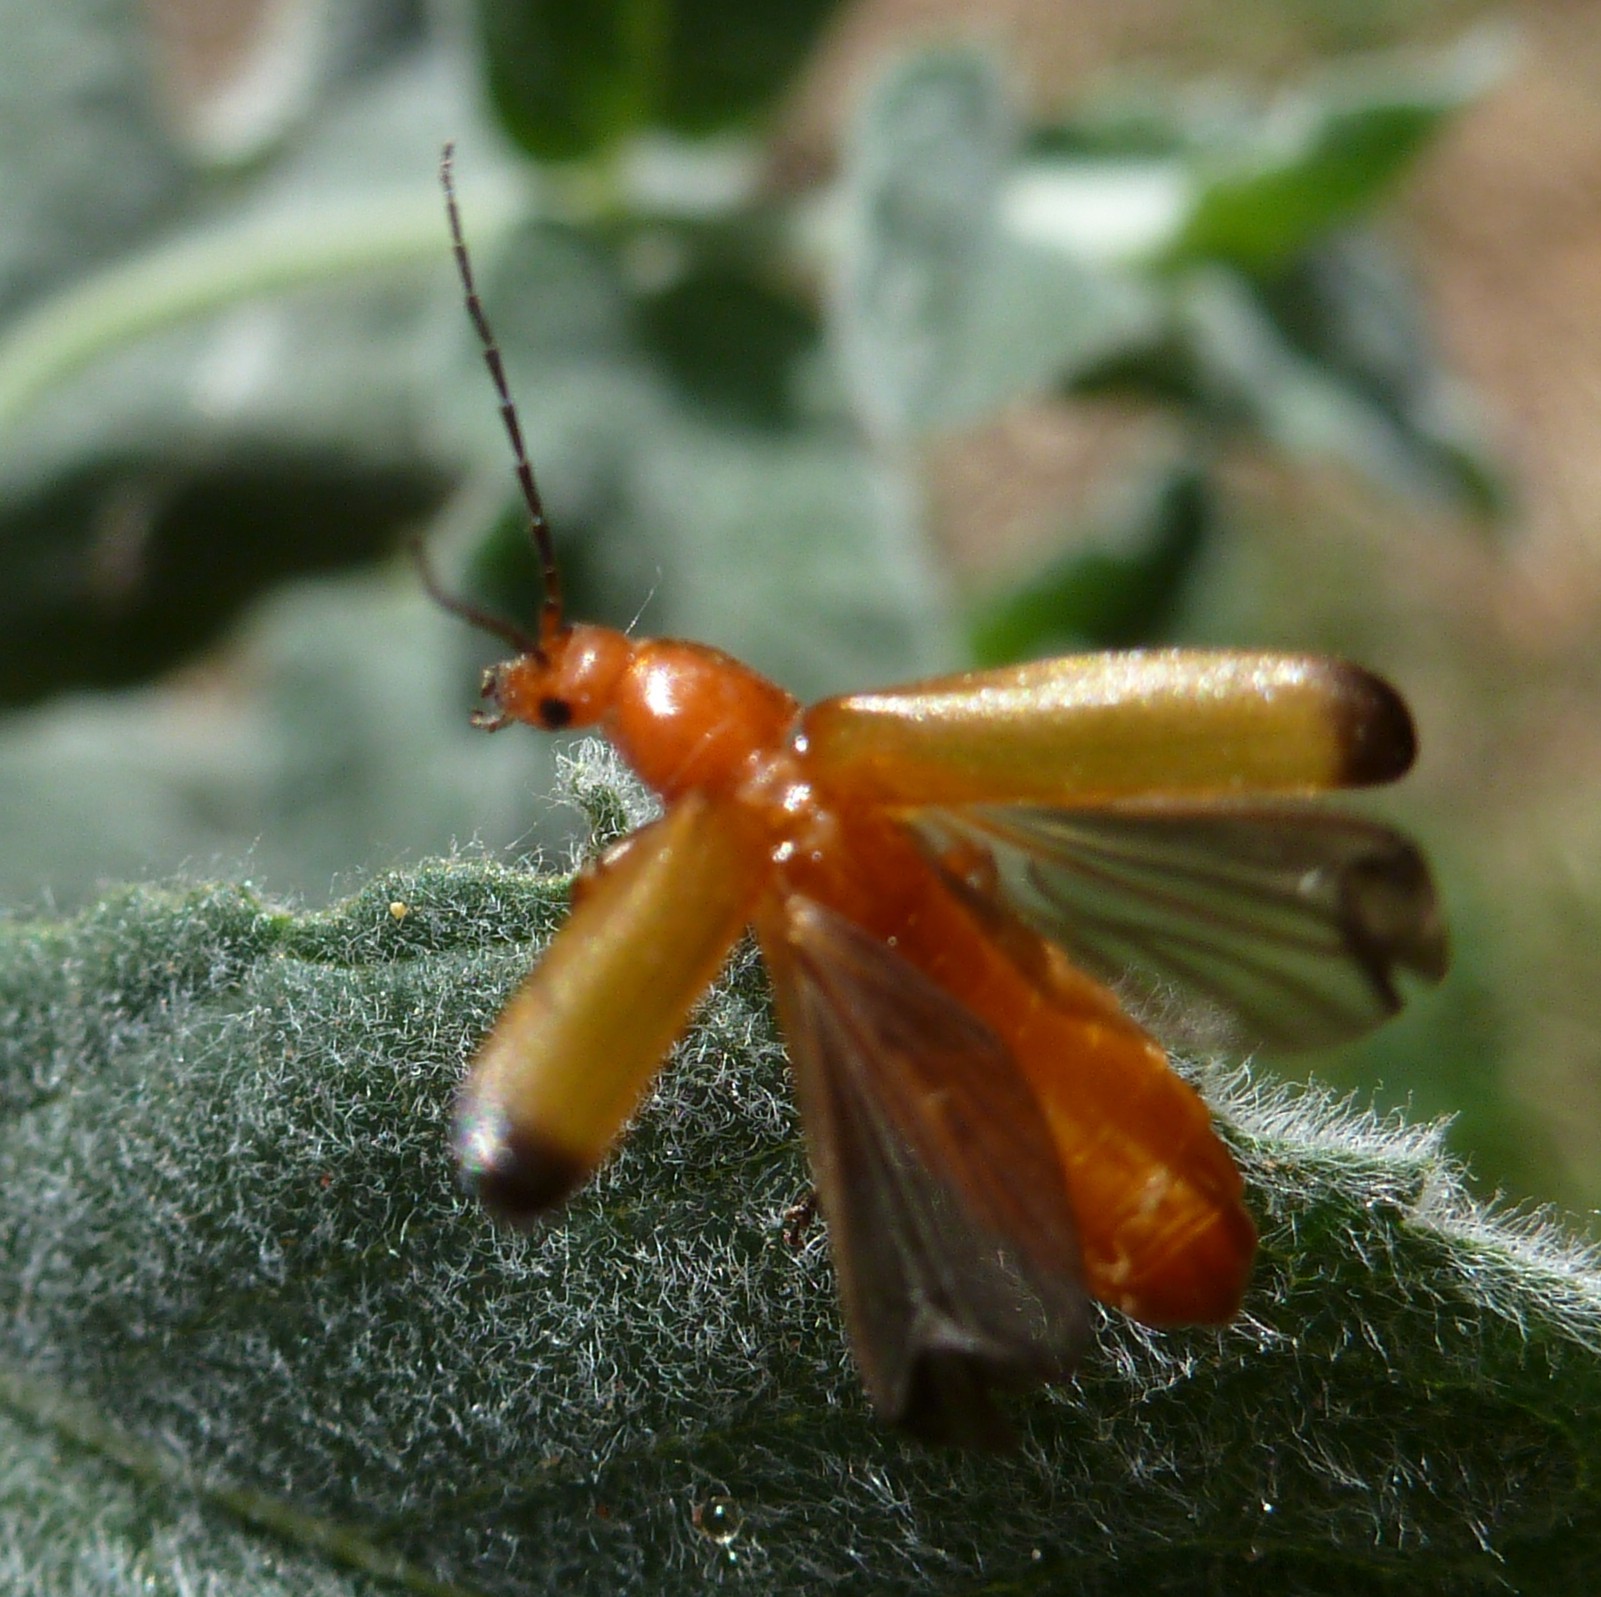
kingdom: Animalia
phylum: Arthropoda
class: Insecta
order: Coleoptera
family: Cantharidae
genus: Rhagonycha
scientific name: Rhagonycha fulva
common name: Common red soldier beetle
